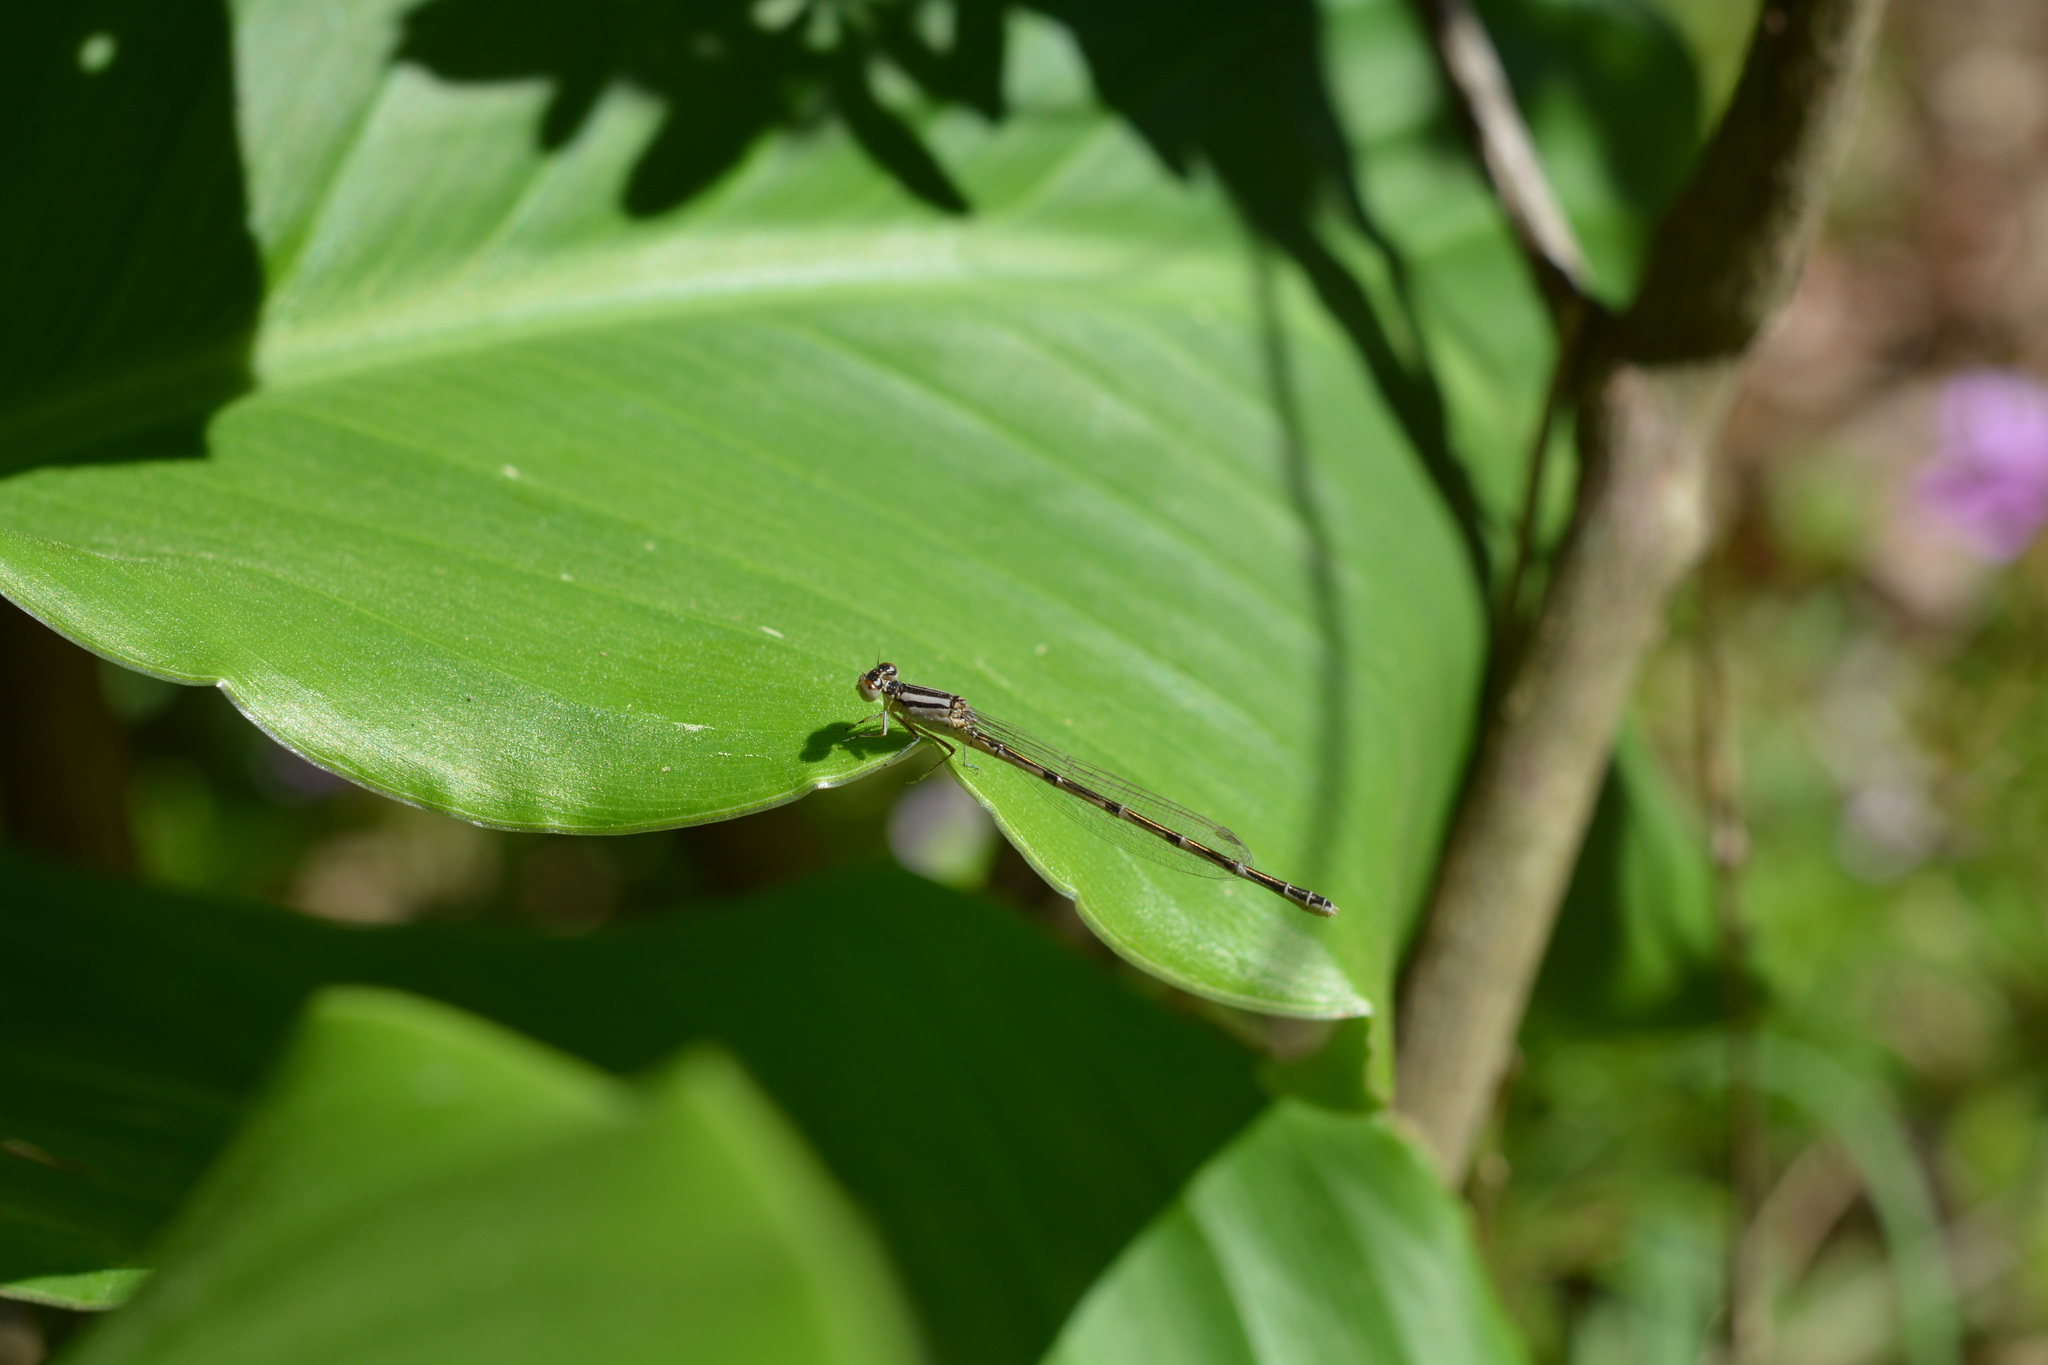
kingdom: Animalia
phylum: Arthropoda
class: Insecta
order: Odonata
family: Coenagrionidae
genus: Enallagma
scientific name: Enallagma durum
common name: Big bluet
